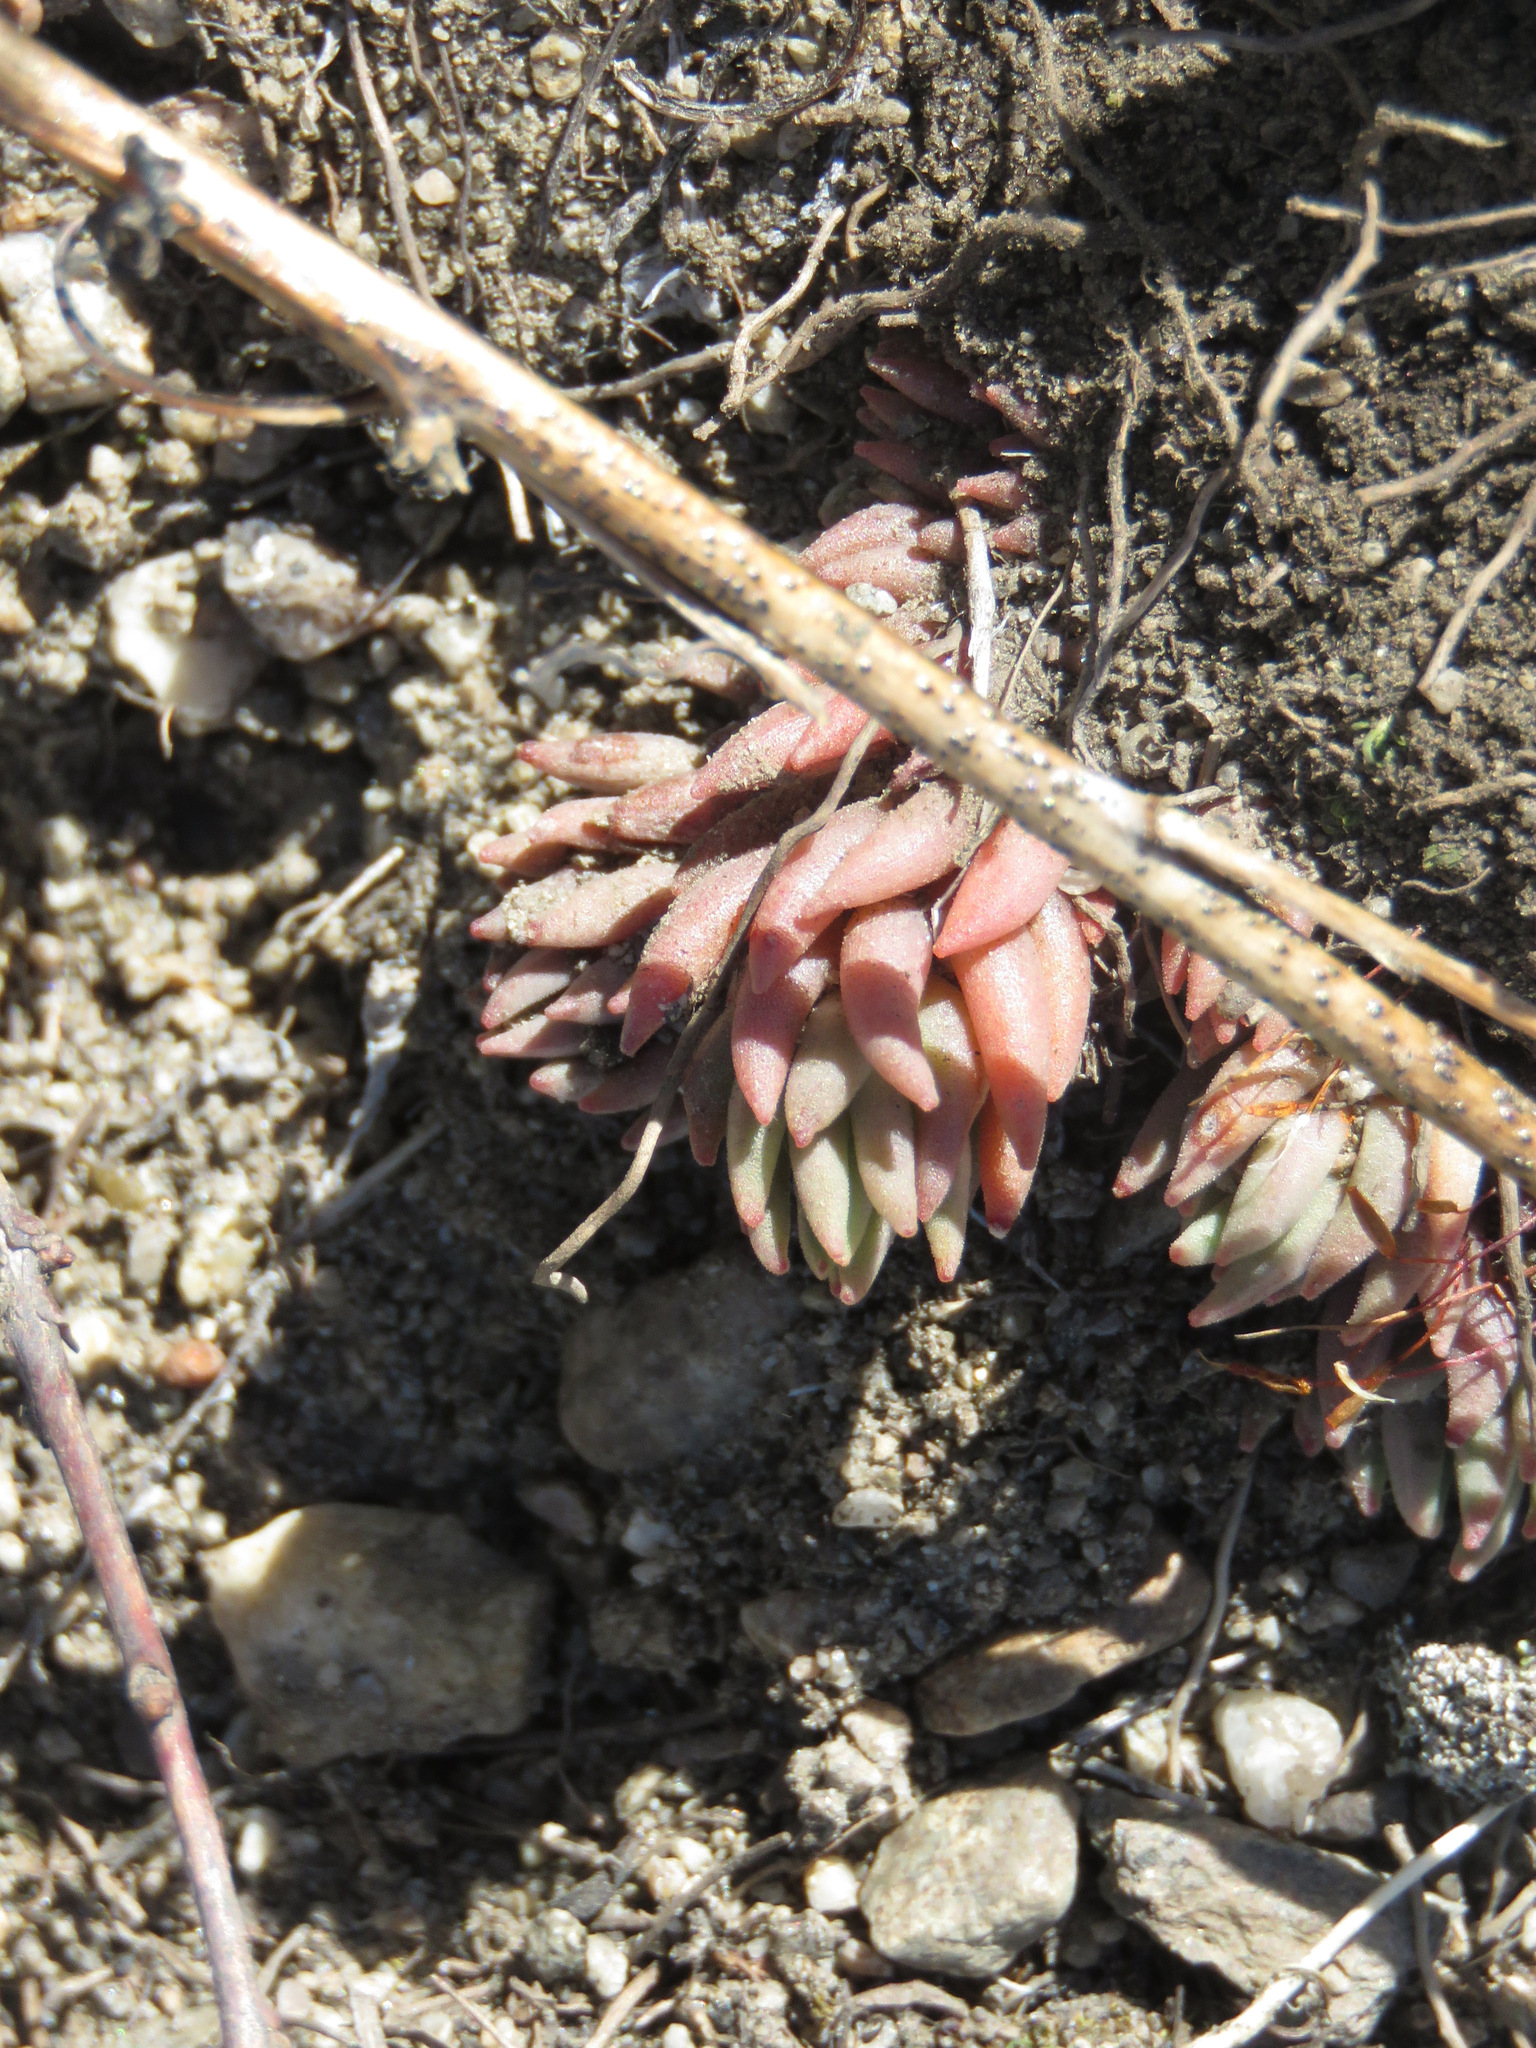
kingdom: Plantae
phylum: Tracheophyta
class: Magnoliopsida
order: Saxifragales
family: Crassulaceae
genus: Sedum
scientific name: Sedum lanceolatum
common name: Common stonecrop
